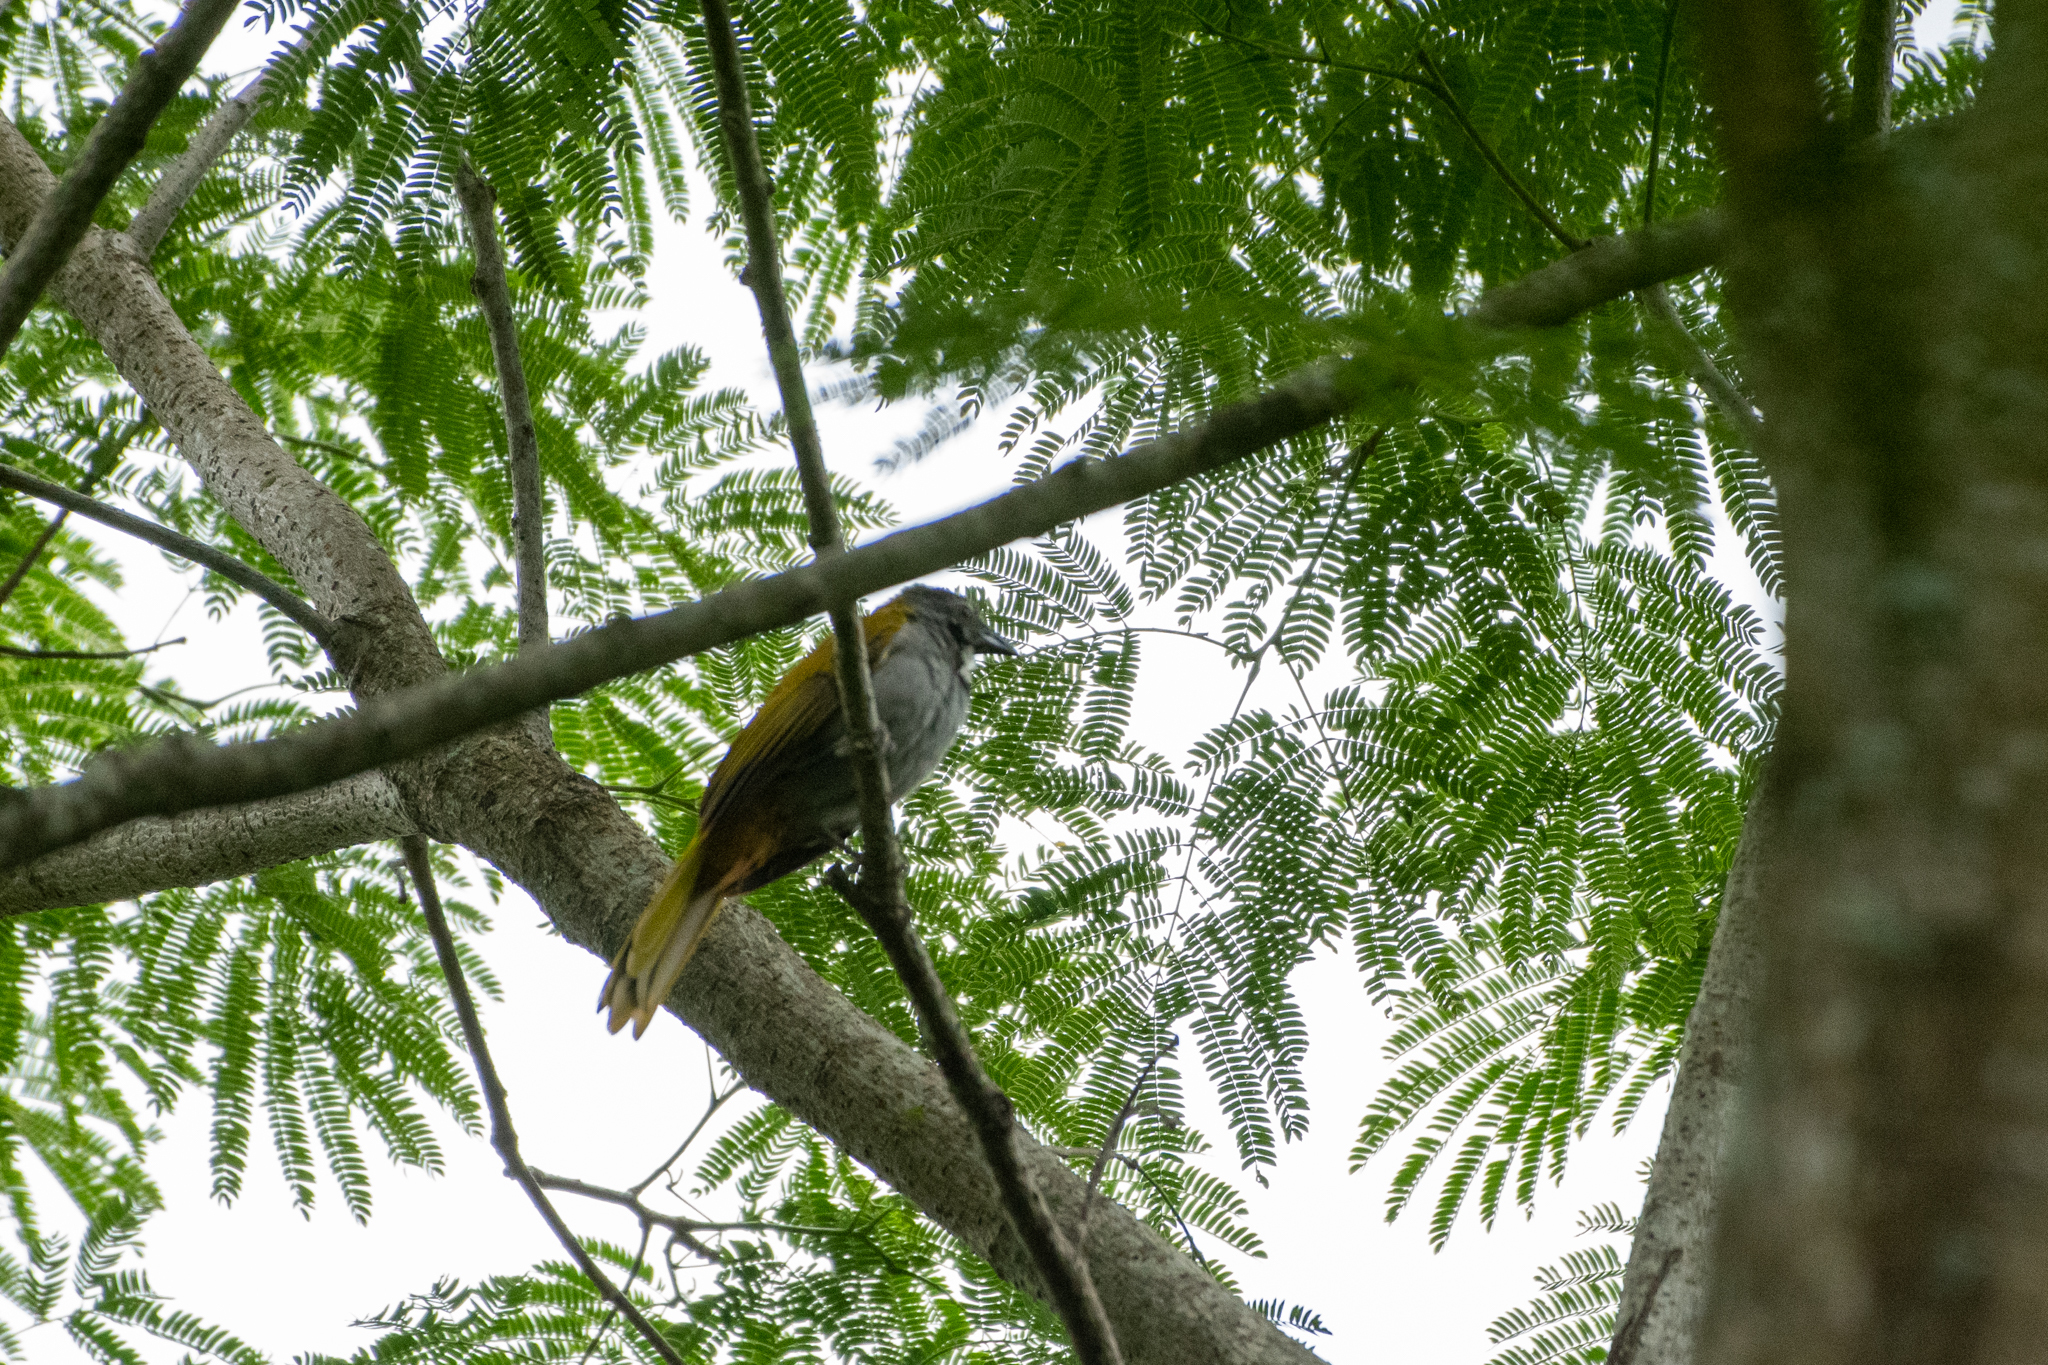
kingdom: Animalia
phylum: Chordata
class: Aves
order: Passeriformes
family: Thraupidae
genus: Saltator
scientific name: Saltator atriceps
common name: Black-headed saltator
